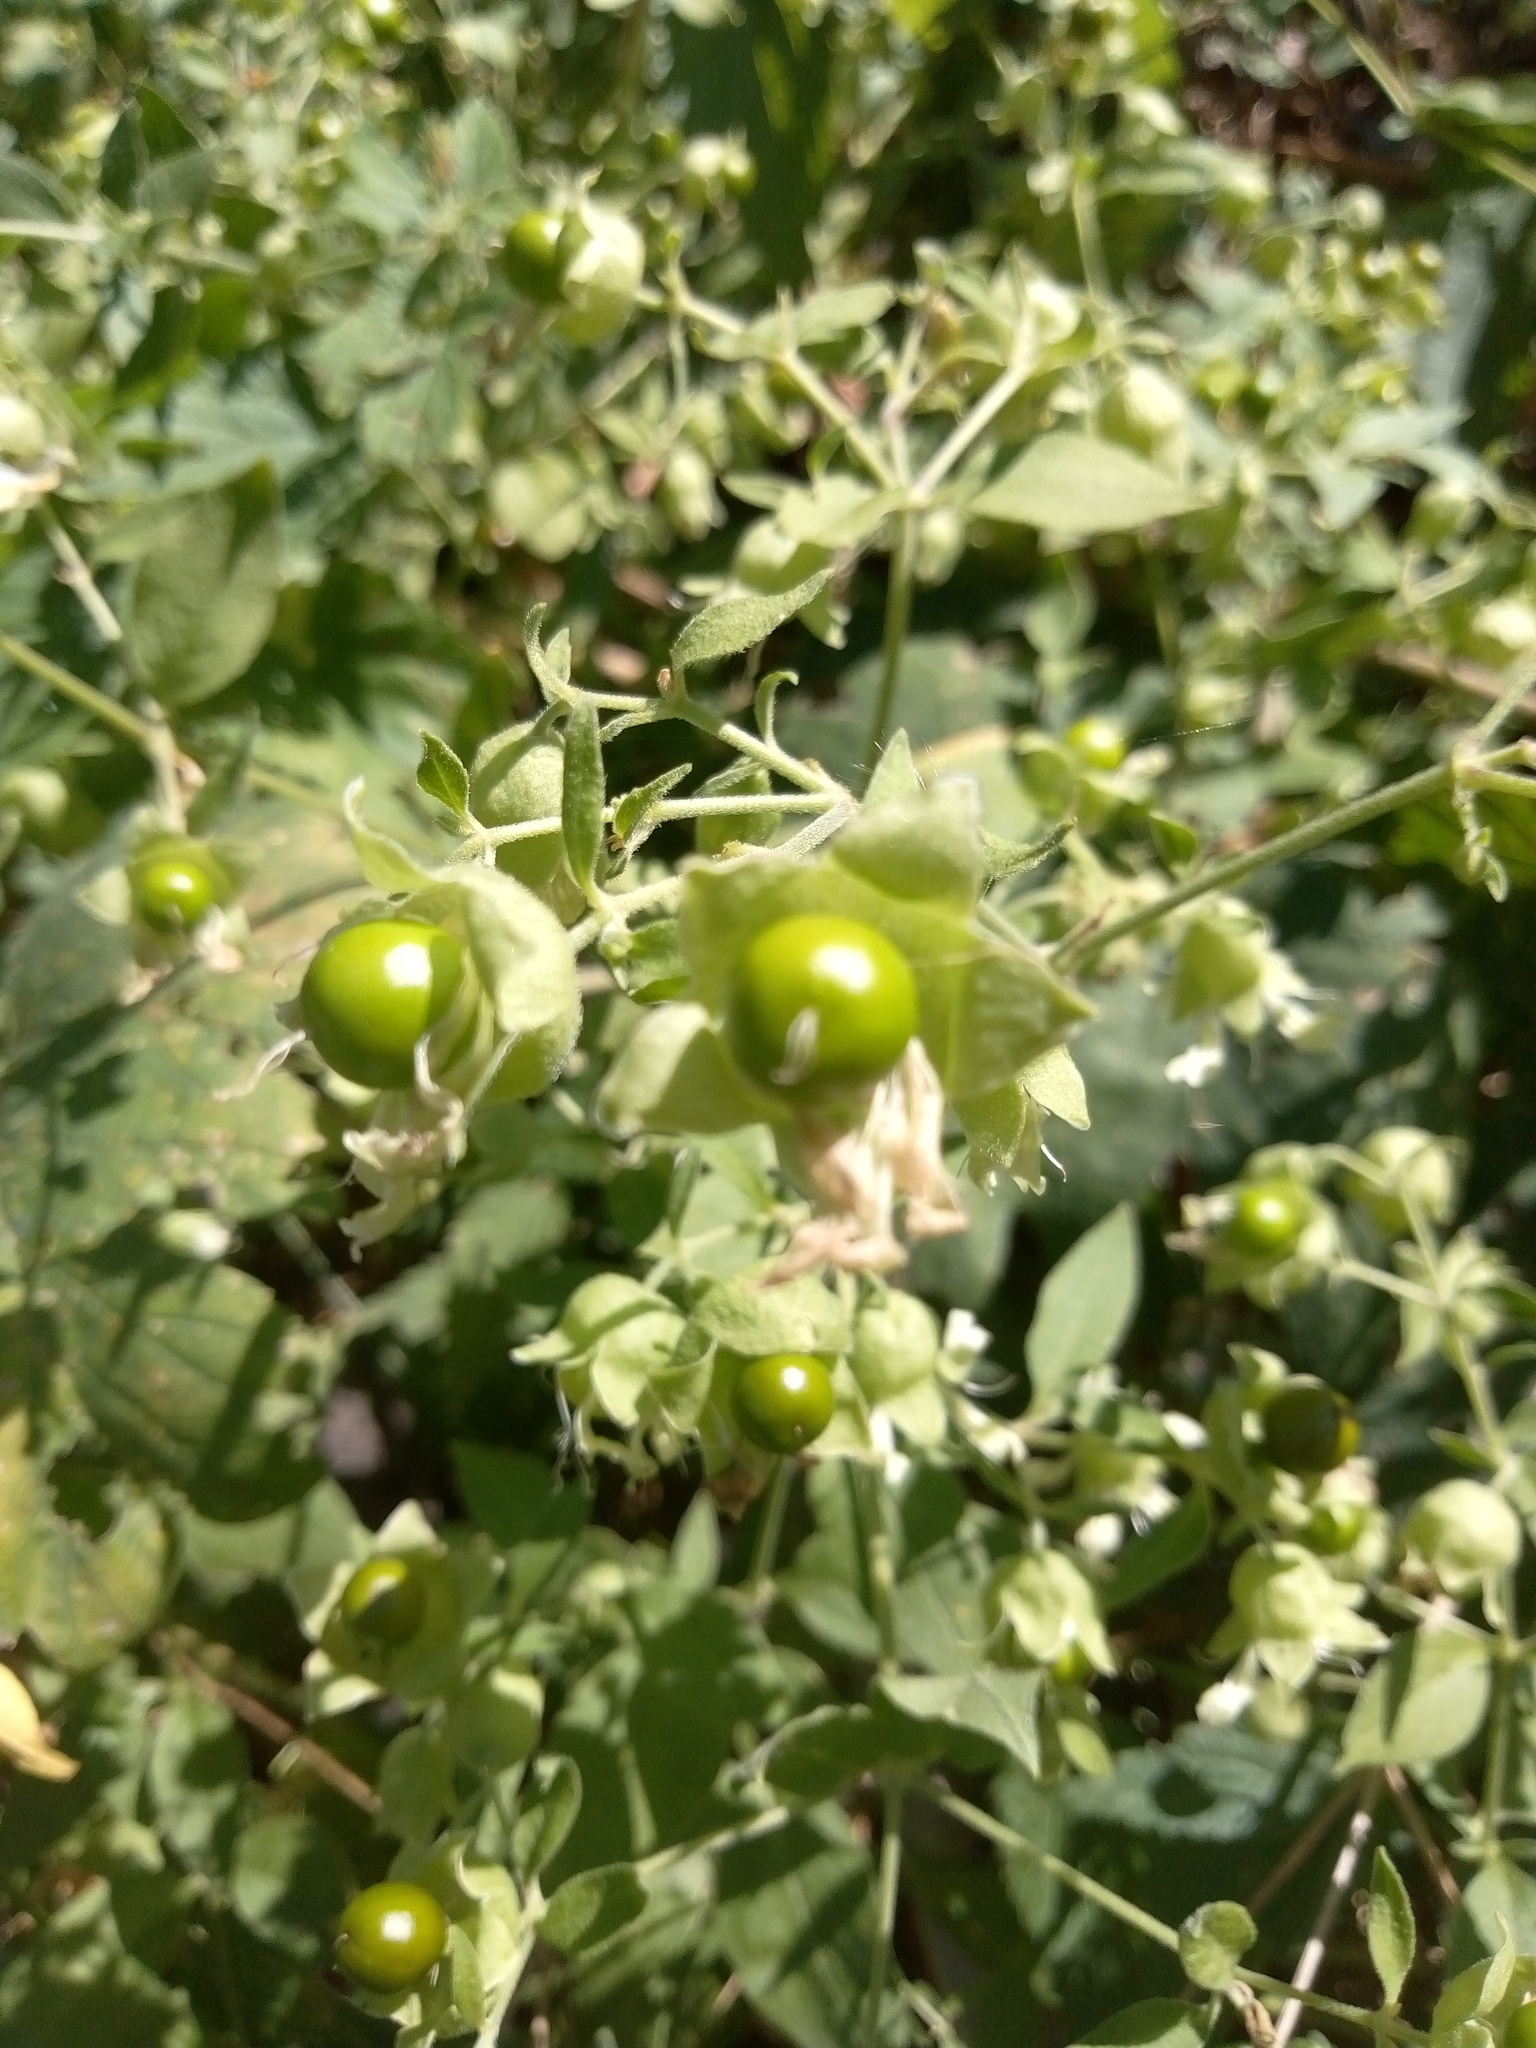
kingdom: Plantae
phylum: Tracheophyta
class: Magnoliopsida
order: Caryophyllales
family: Caryophyllaceae
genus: Silene
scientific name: Silene baccifera
